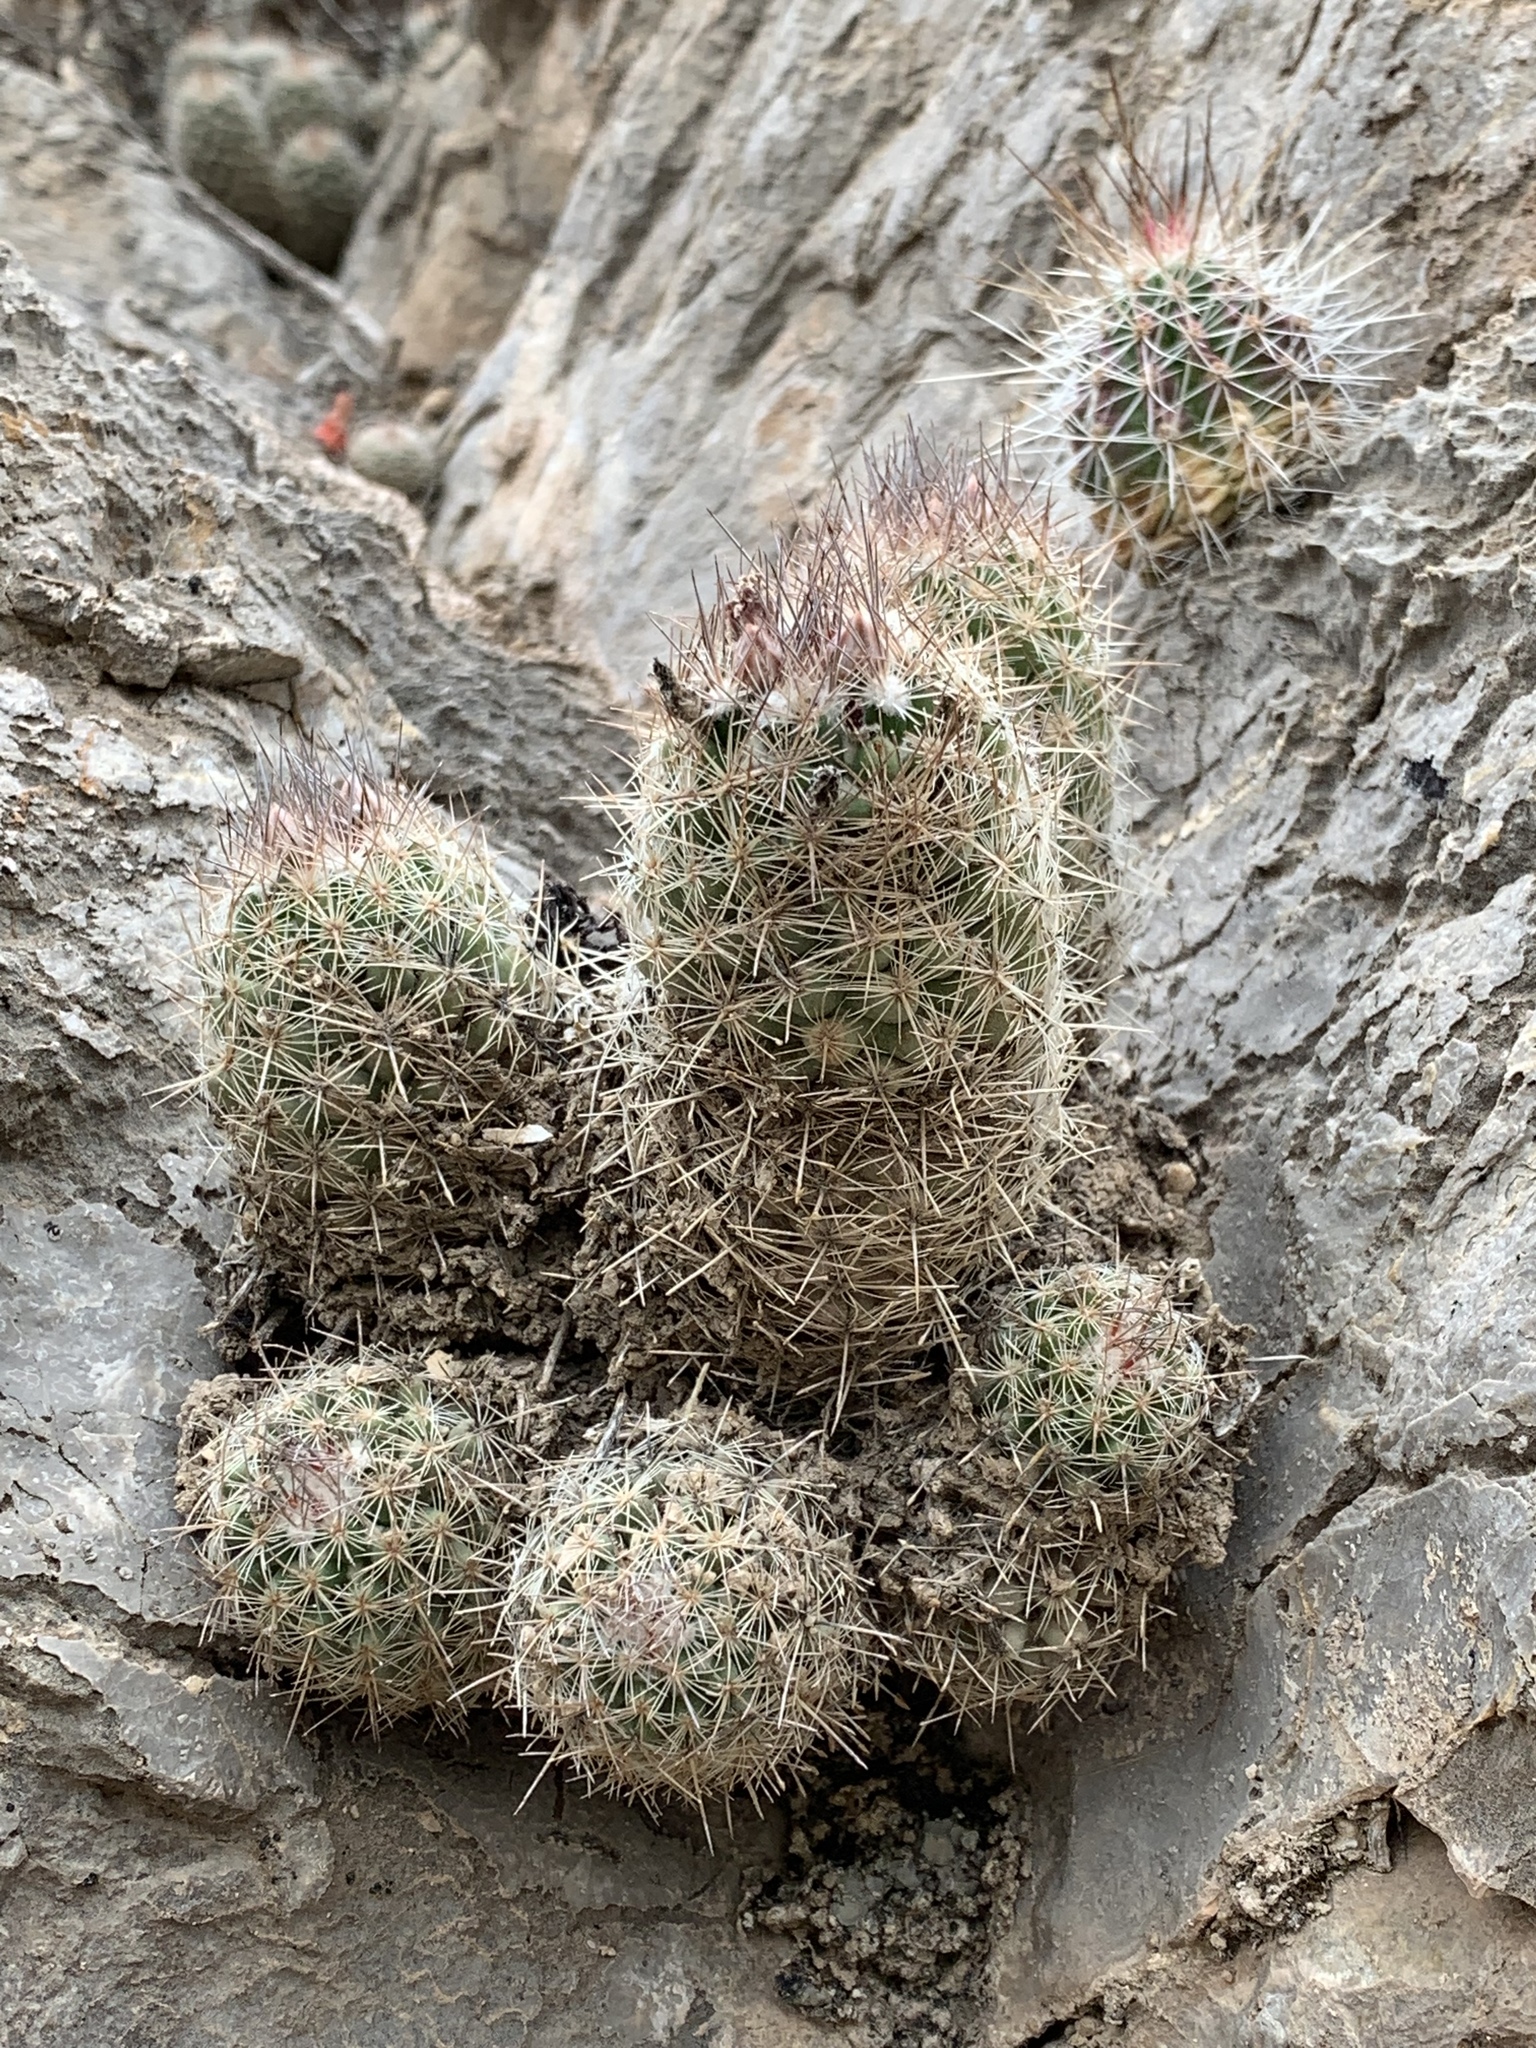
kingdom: Plantae
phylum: Tracheophyta
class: Magnoliopsida
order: Caryophyllales
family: Cactaceae
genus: Pelecyphora
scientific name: Pelecyphora tuberculosa
